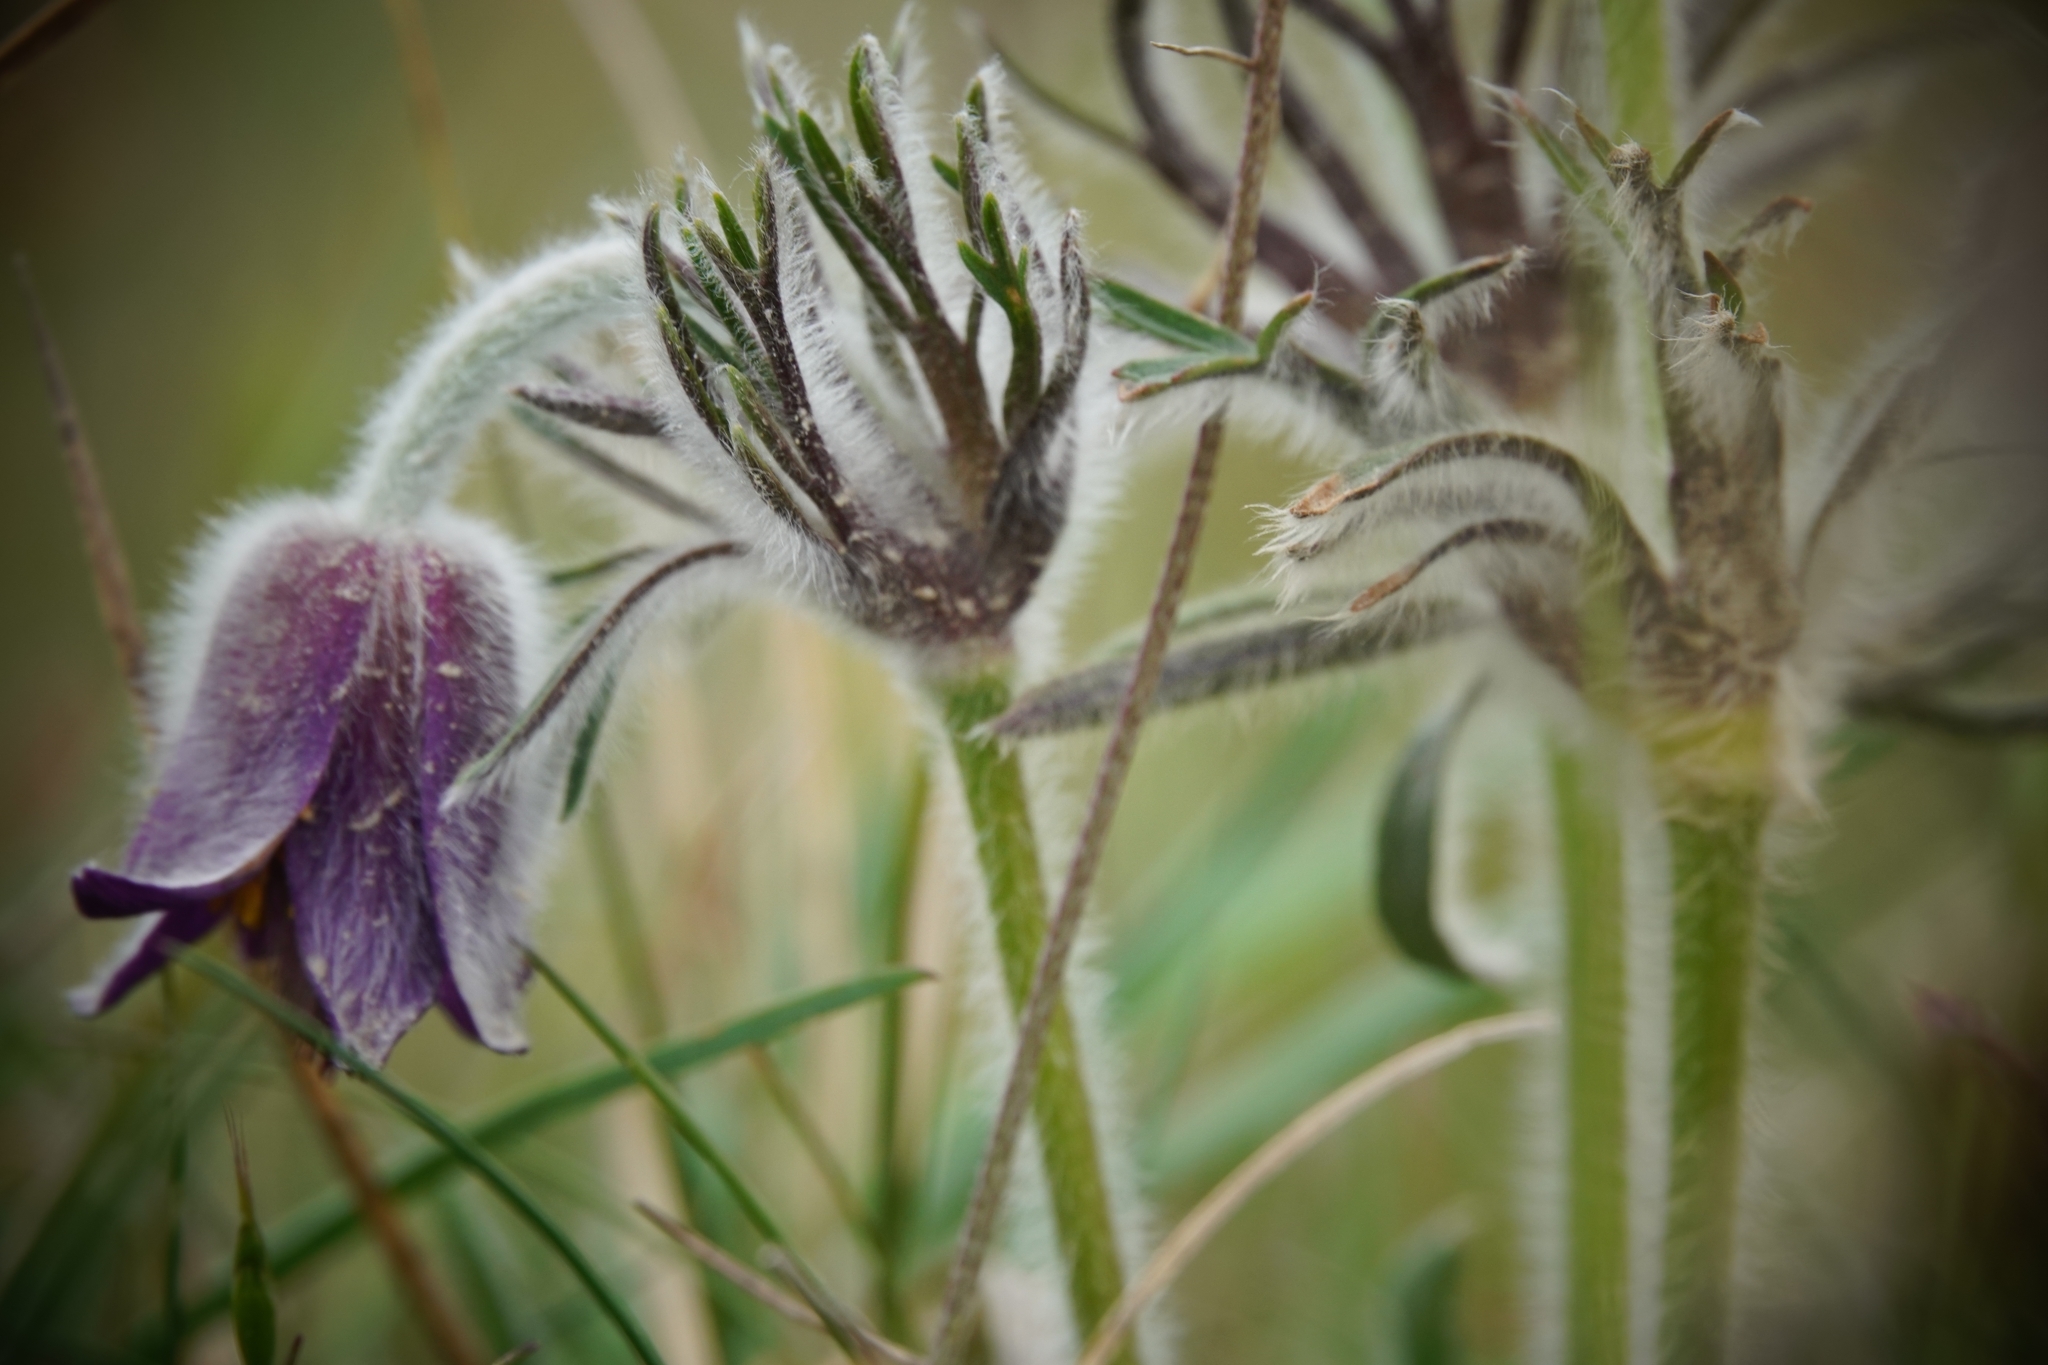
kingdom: Plantae
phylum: Tracheophyta
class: Magnoliopsida
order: Ranunculales
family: Ranunculaceae
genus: Pulsatilla
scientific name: Pulsatilla pratensis
